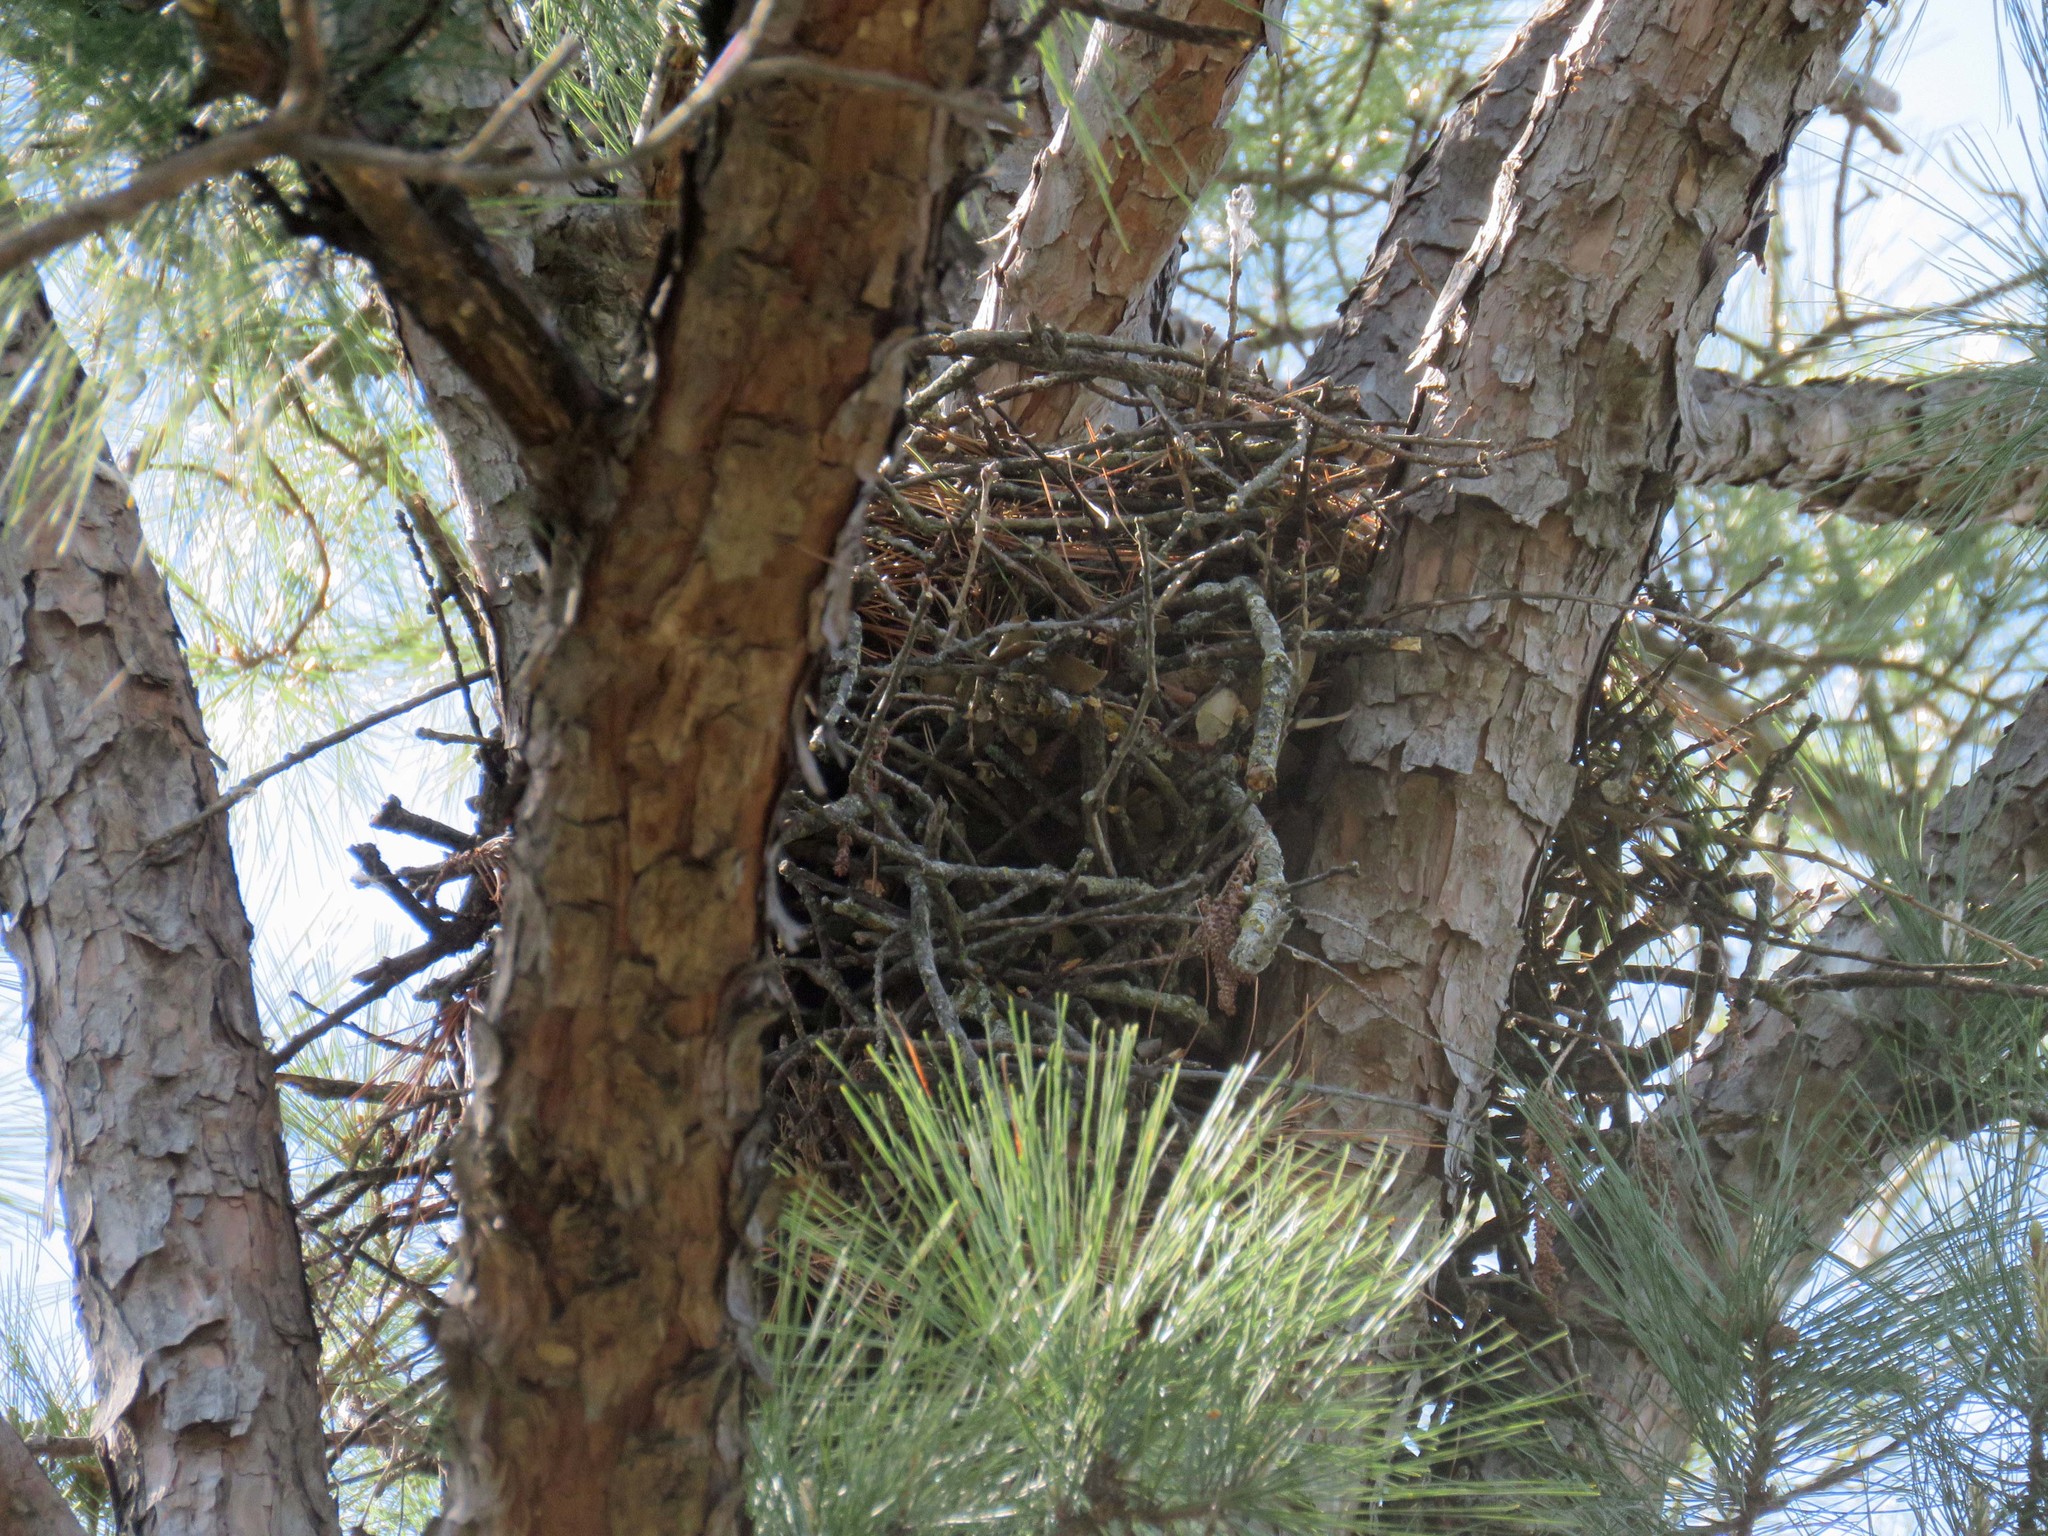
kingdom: Animalia
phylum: Chordata
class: Aves
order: Accipitriformes
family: Accipitridae
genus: Buteo
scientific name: Buteo lineatus
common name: Red-shouldered hawk
